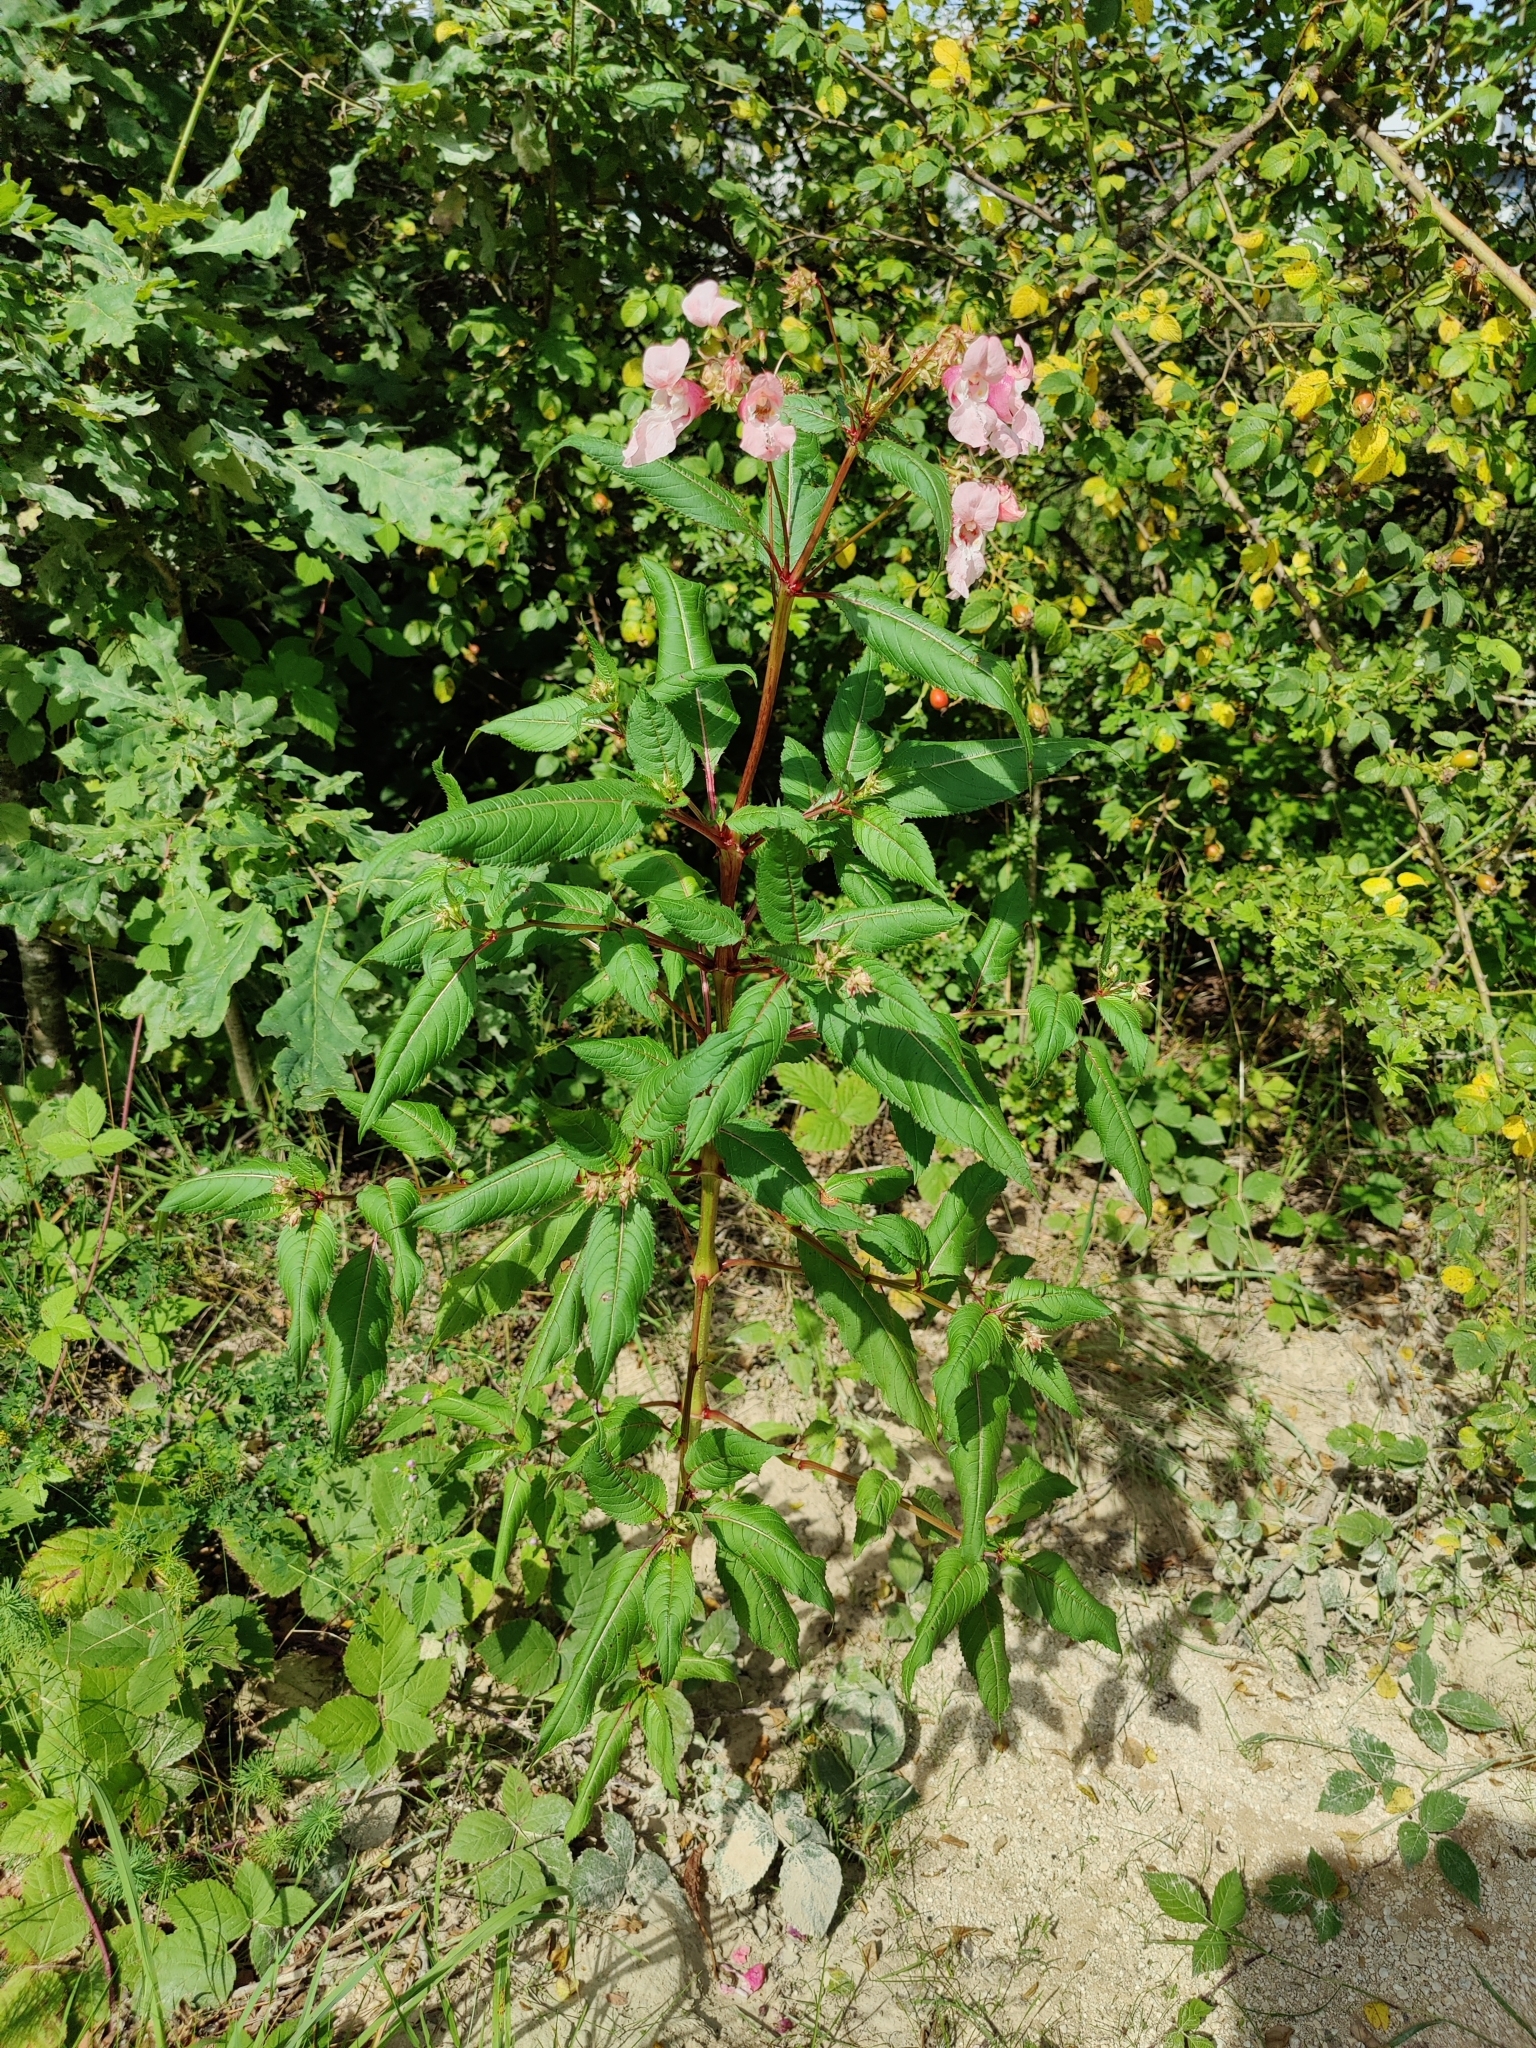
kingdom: Plantae
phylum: Tracheophyta
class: Magnoliopsida
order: Ericales
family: Balsaminaceae
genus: Impatiens
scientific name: Impatiens glandulifera
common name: Himalayan balsam
